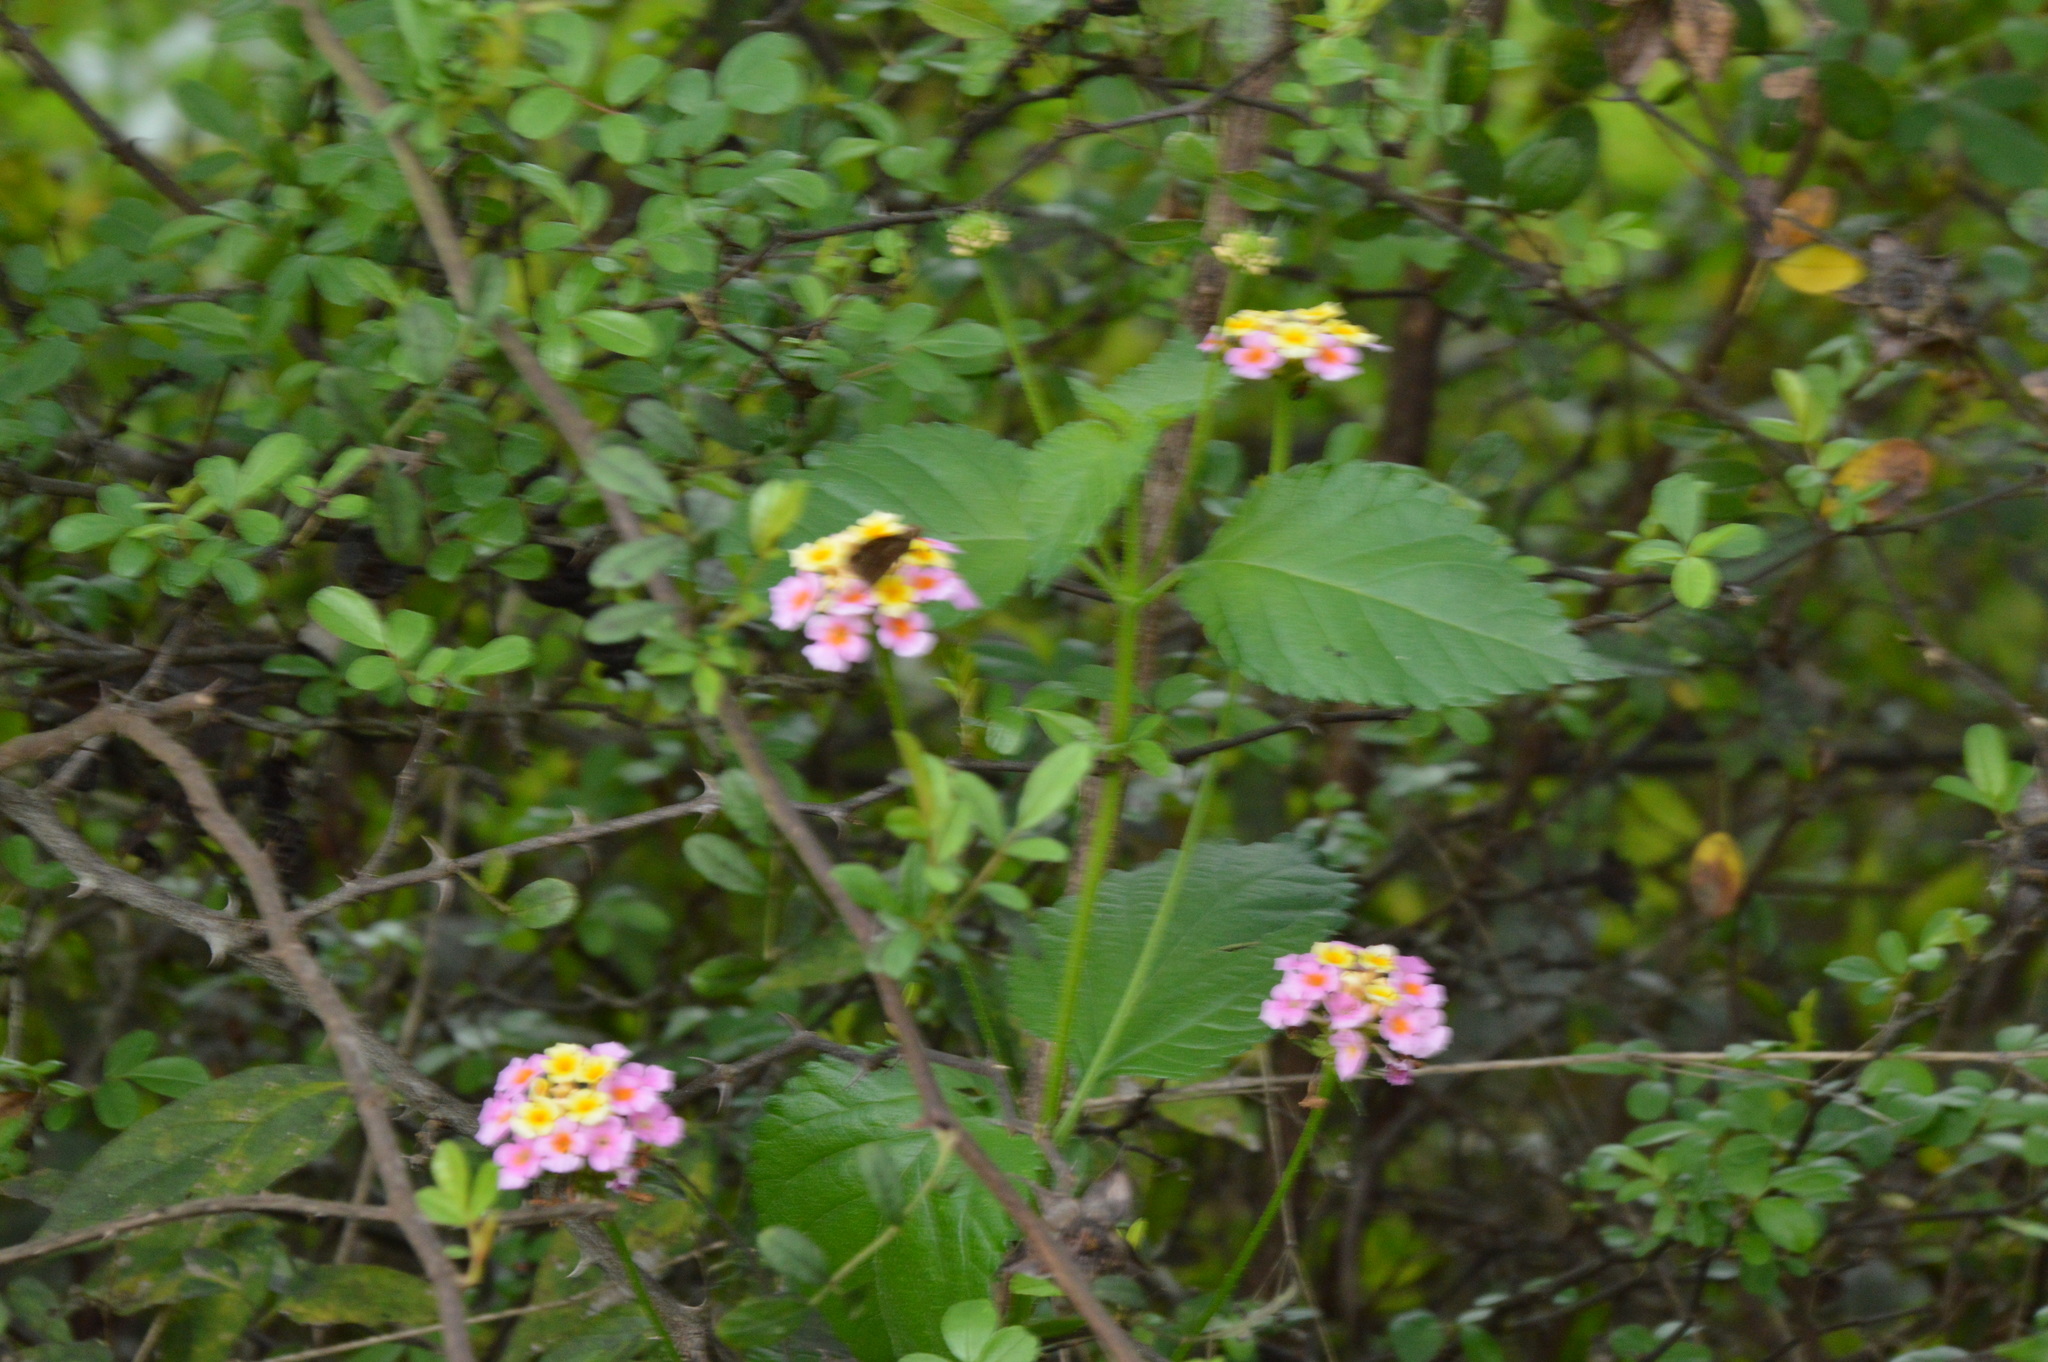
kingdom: Plantae
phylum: Tracheophyta
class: Magnoliopsida
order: Lamiales
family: Verbenaceae
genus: Lantana
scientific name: Lantana strigocamara
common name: Lantana
